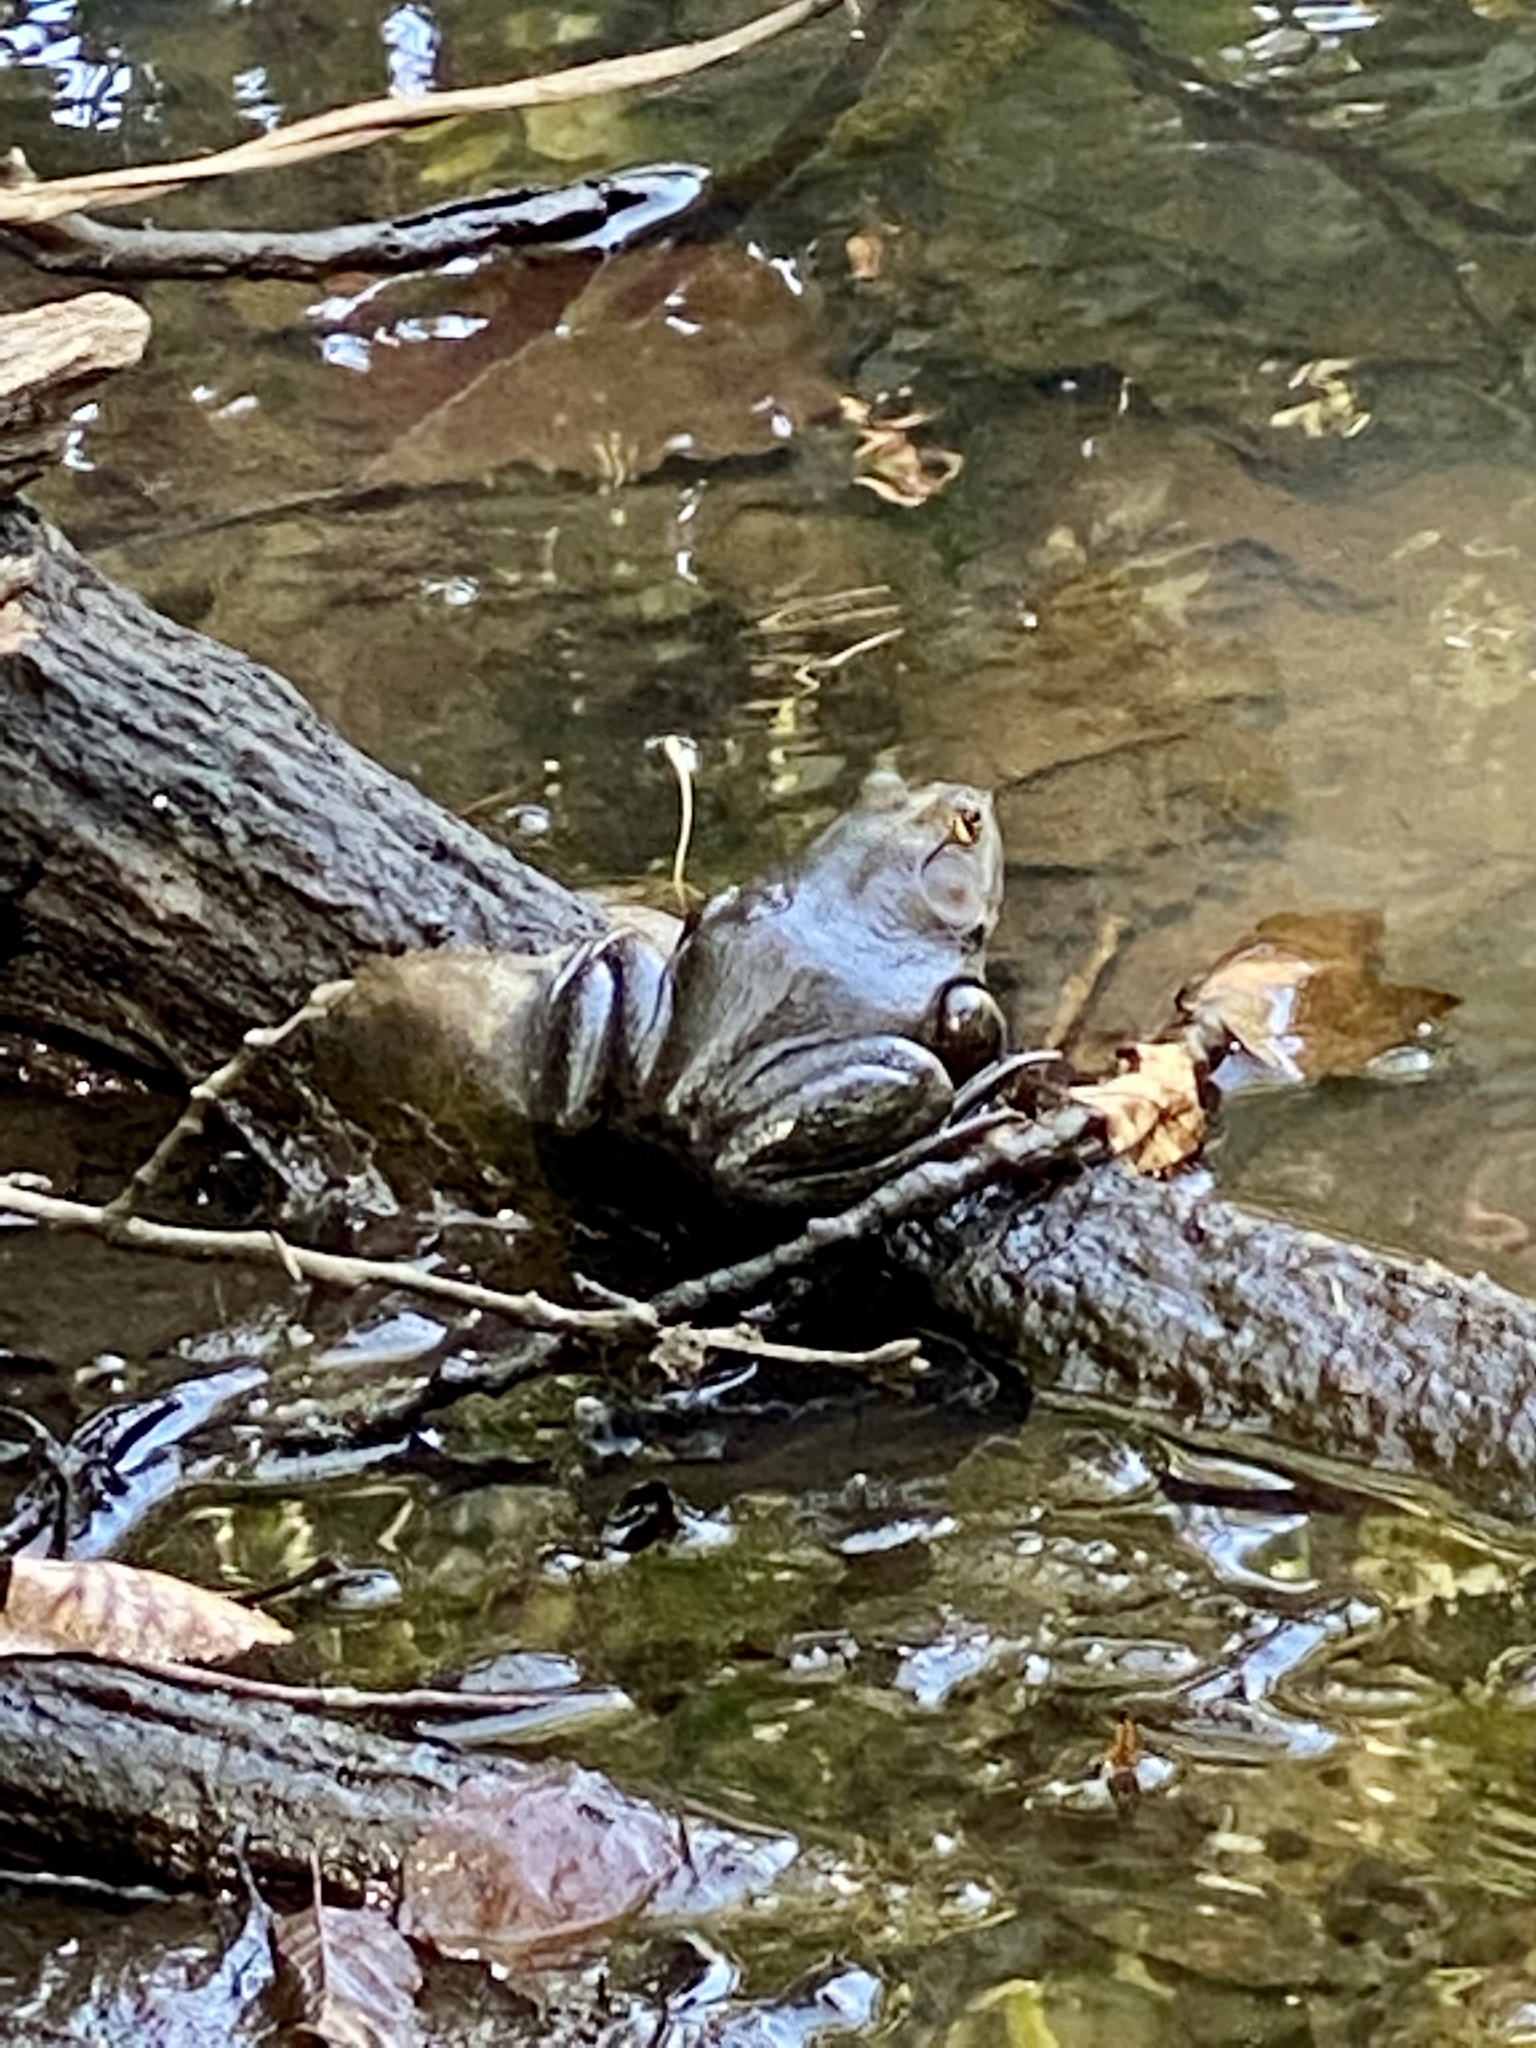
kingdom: Animalia
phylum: Chordata
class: Amphibia
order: Anura
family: Ranidae
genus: Lithobates
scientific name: Lithobates catesbeianus
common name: American bullfrog
